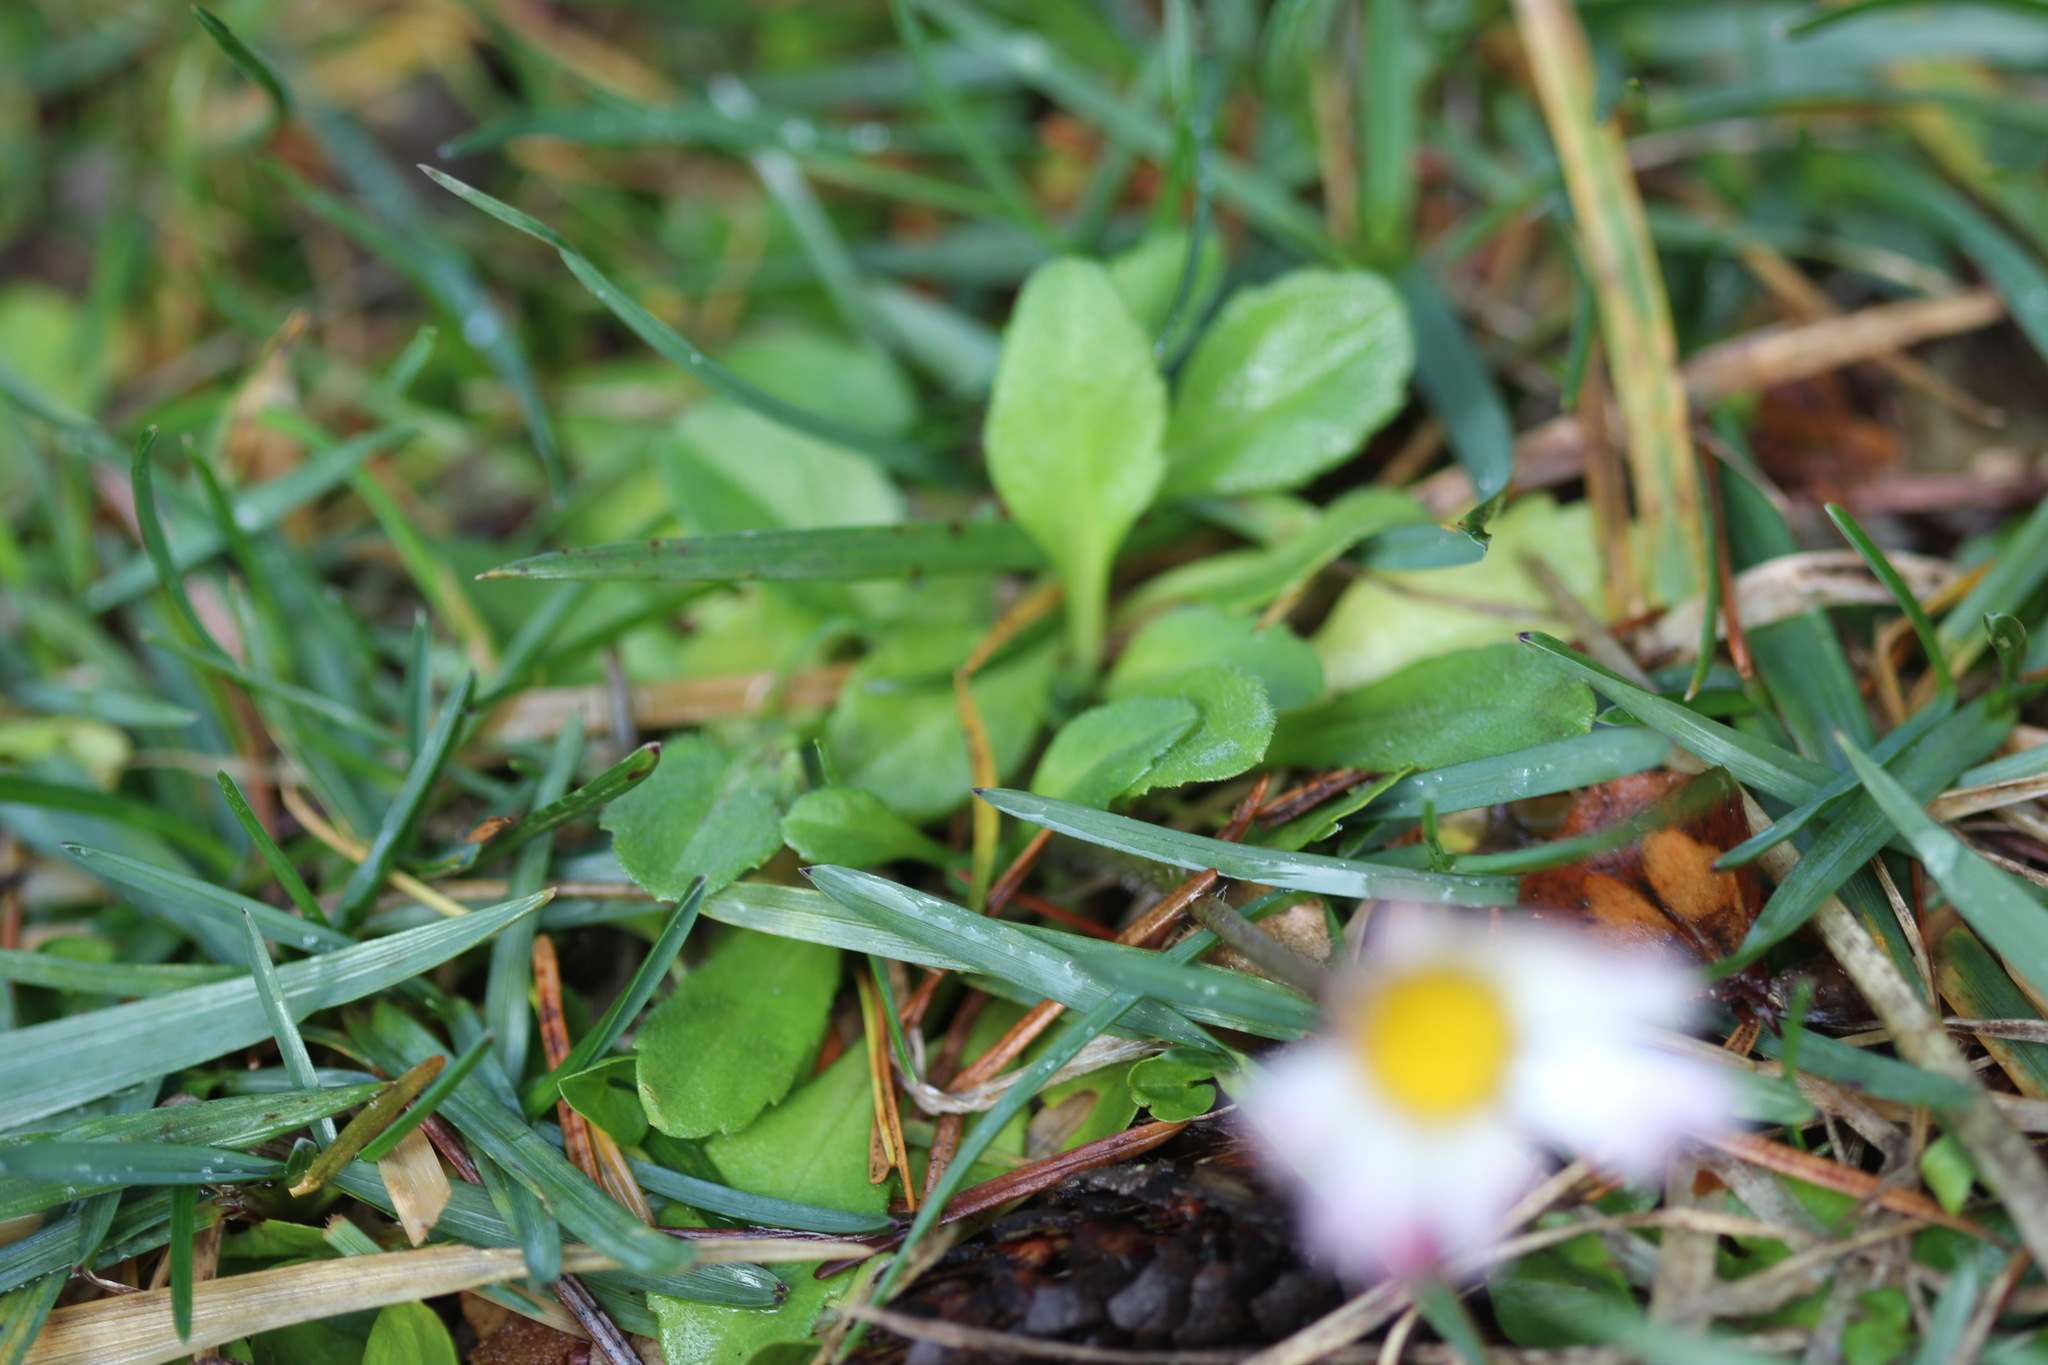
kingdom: Plantae
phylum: Tracheophyta
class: Magnoliopsida
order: Asterales
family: Asteraceae
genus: Bellis
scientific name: Bellis perennis
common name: Lawndaisy
